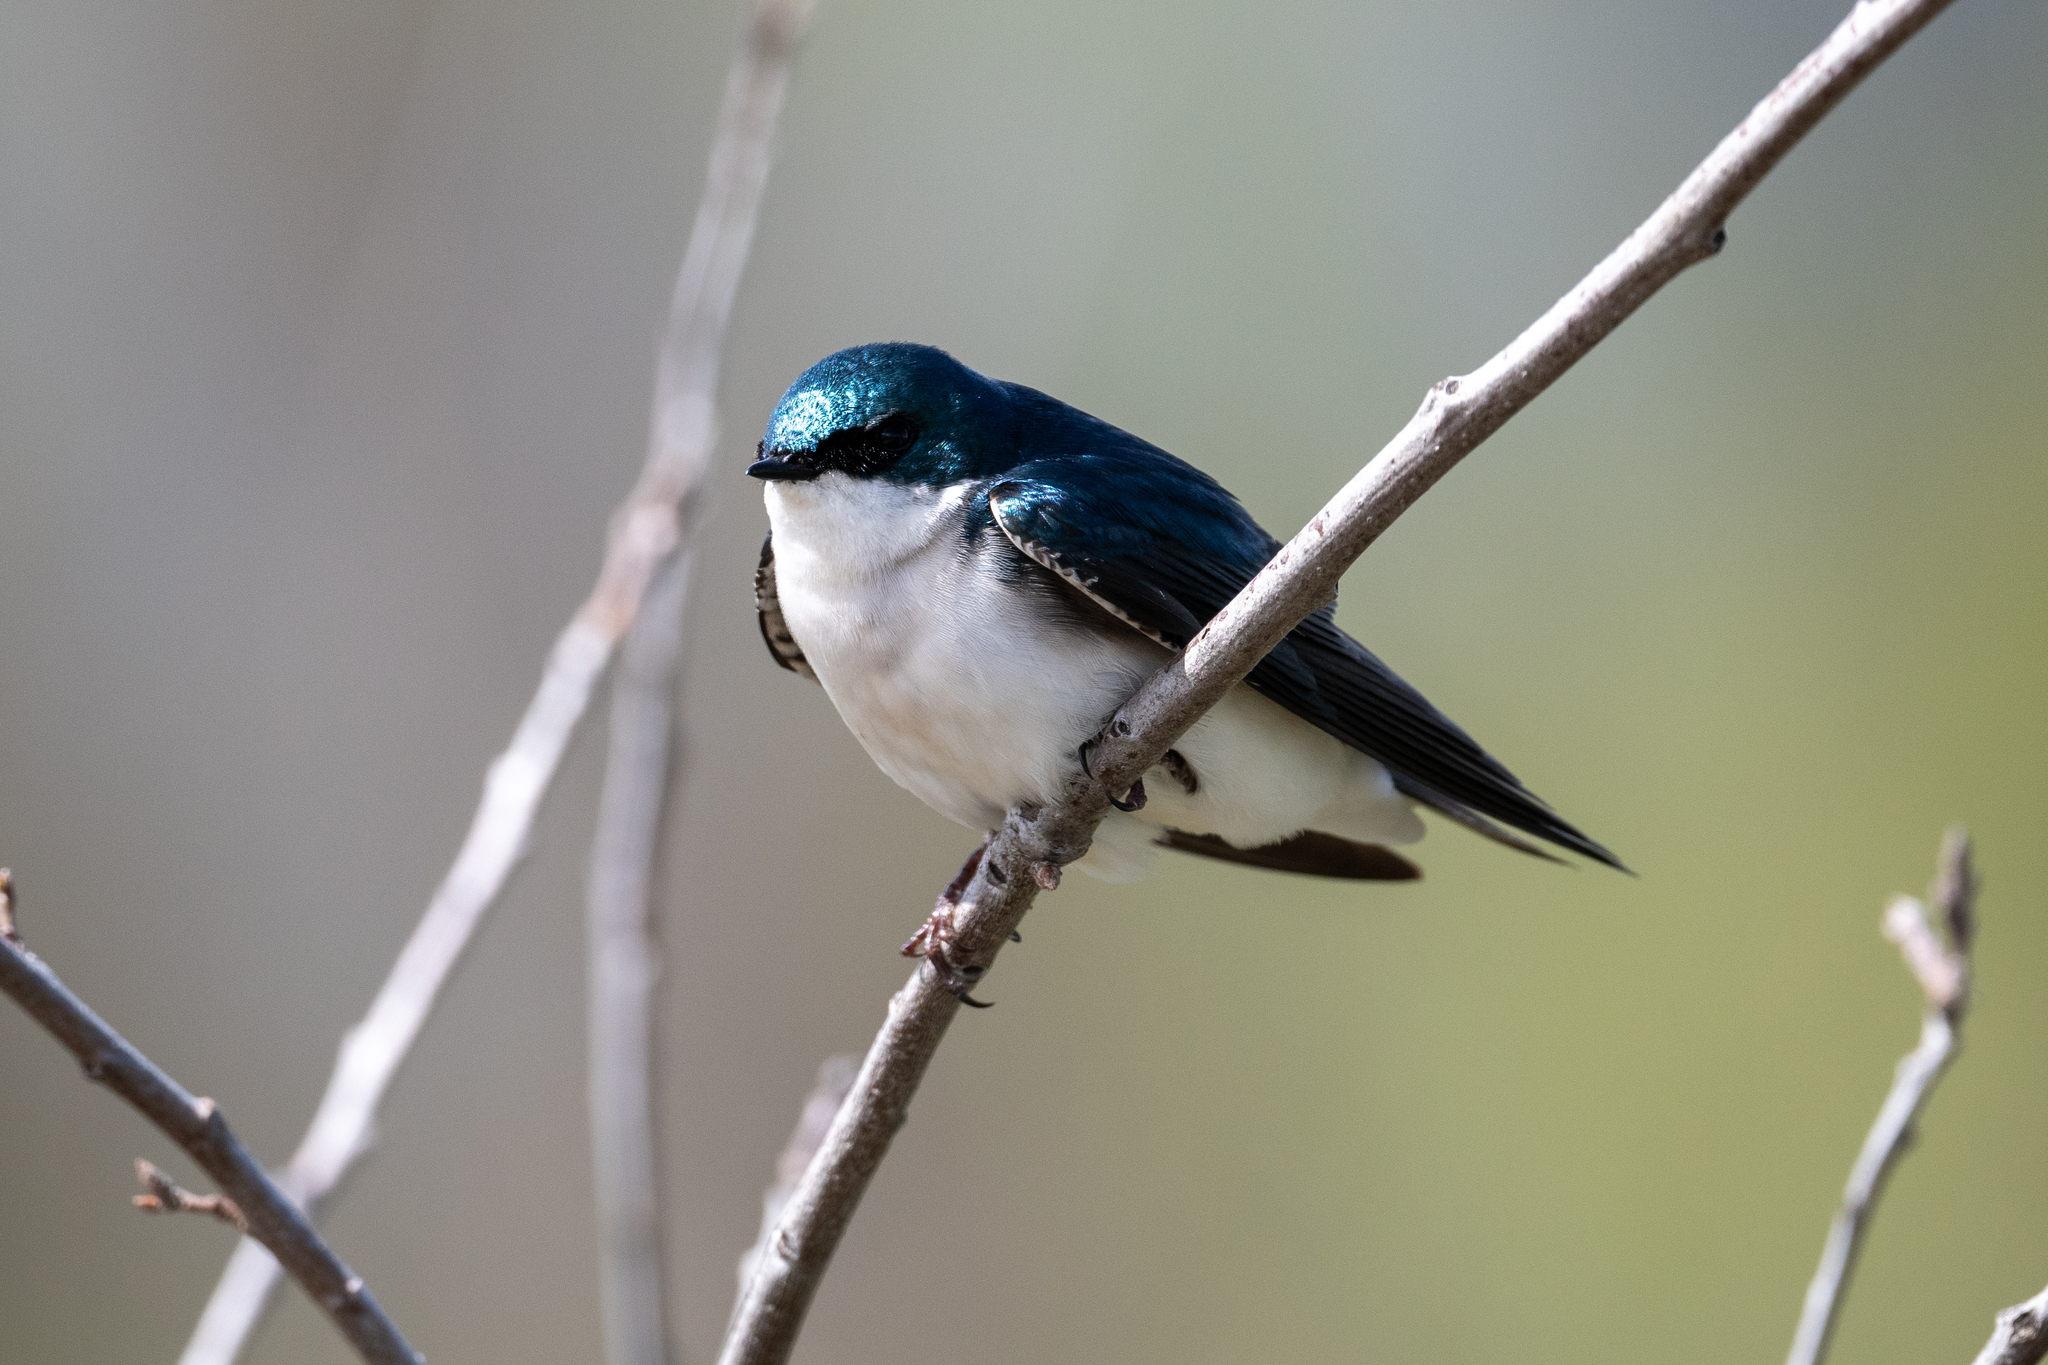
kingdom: Animalia
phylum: Chordata
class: Aves
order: Passeriformes
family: Hirundinidae
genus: Tachycineta
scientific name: Tachycineta bicolor
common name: Tree swallow
